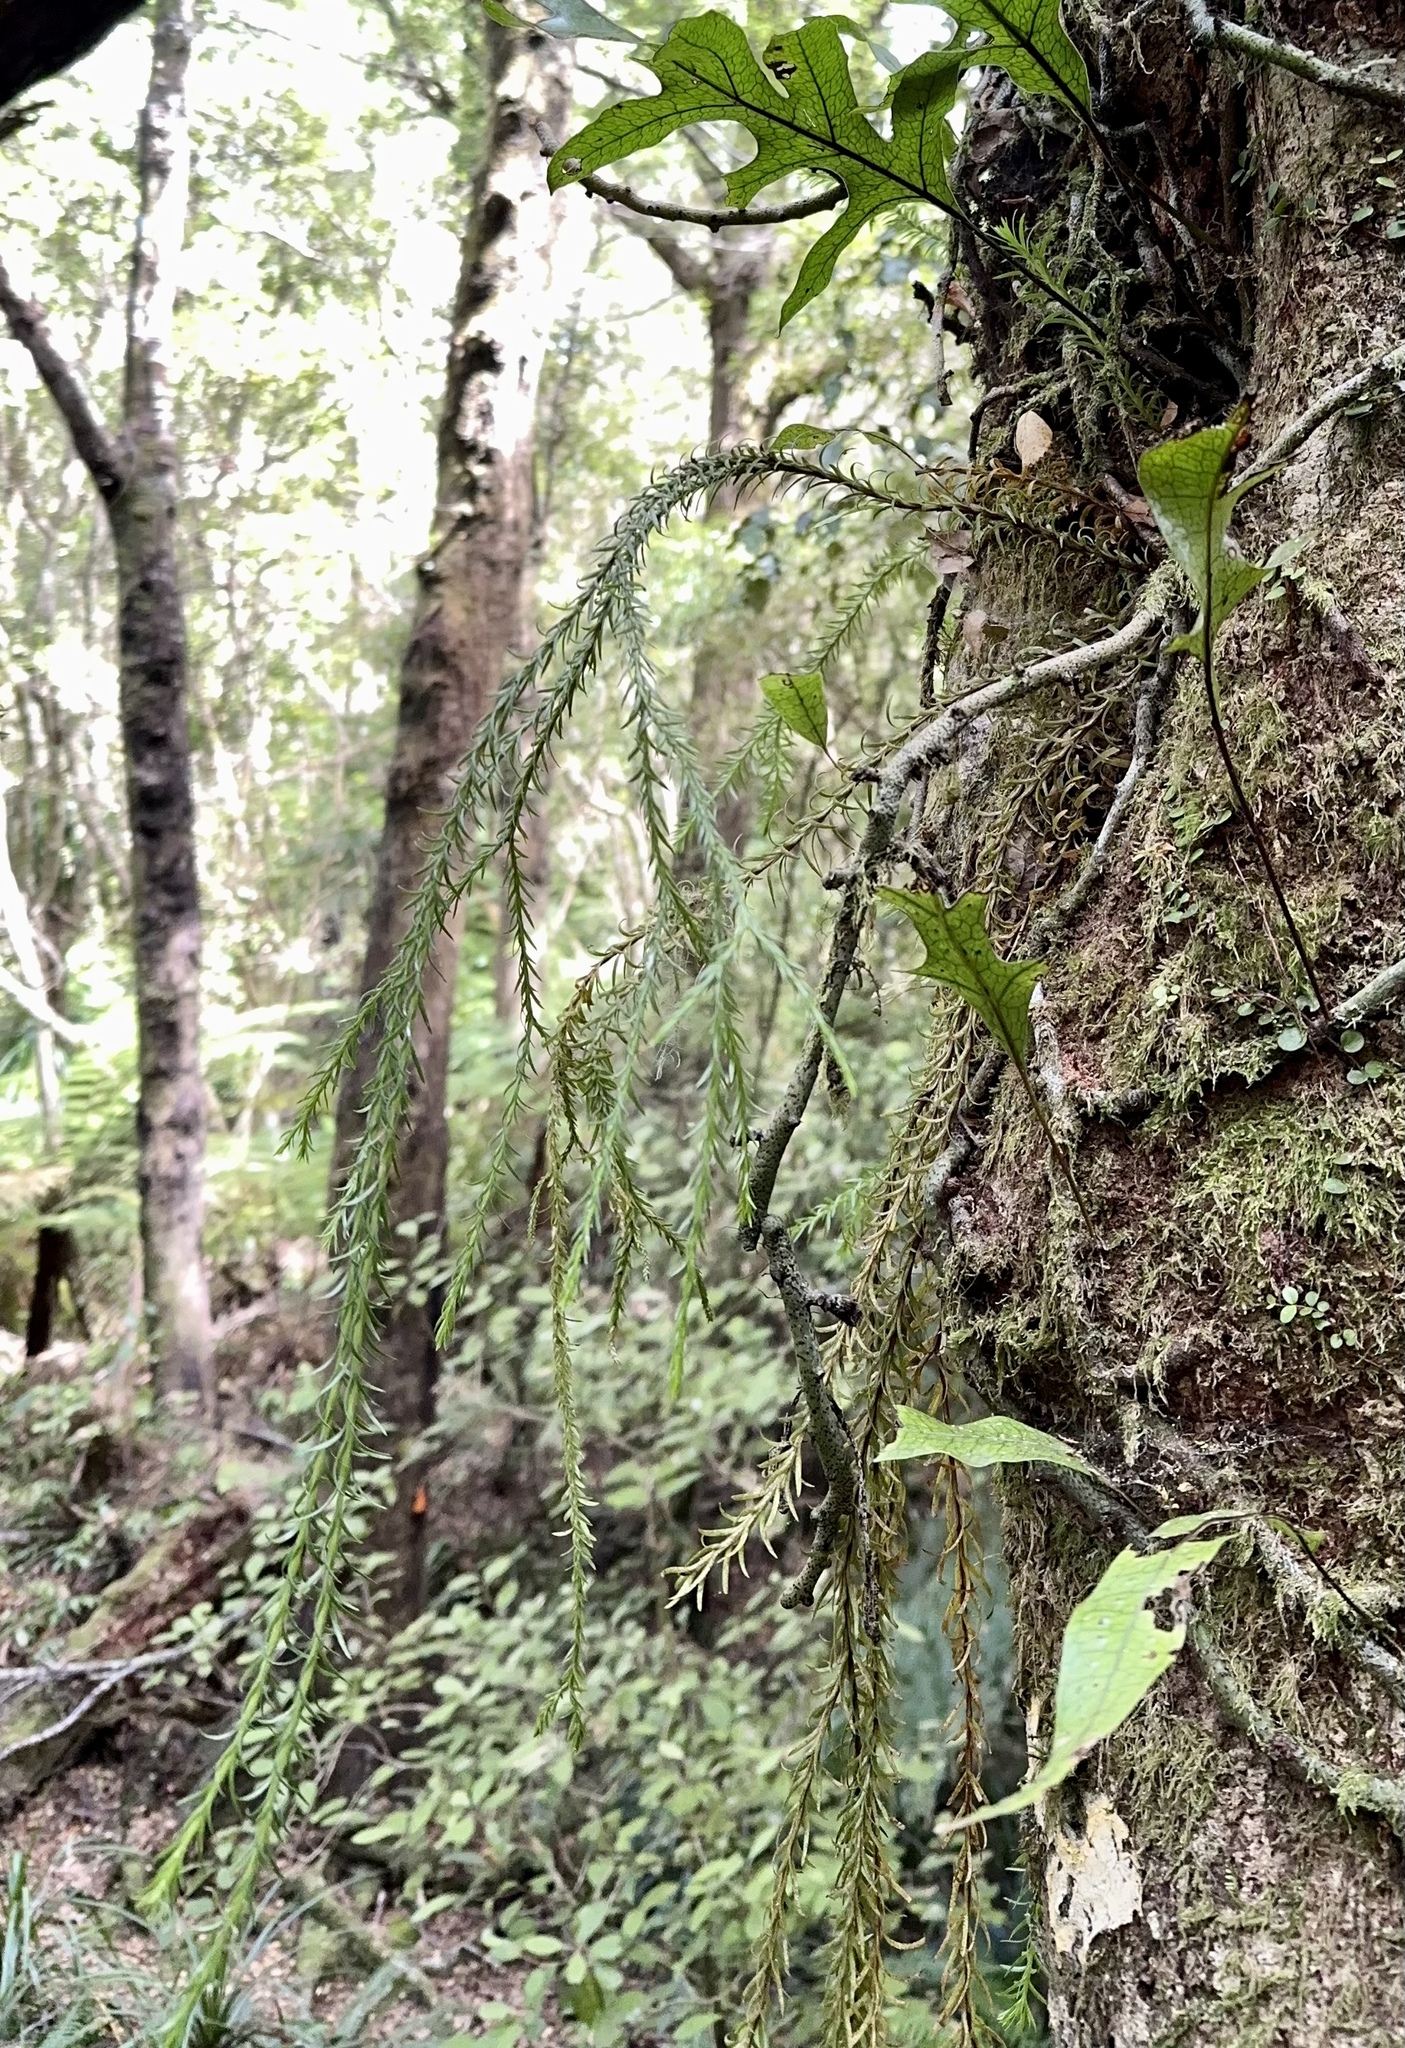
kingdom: Plantae
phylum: Tracheophyta
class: Lycopodiopsida
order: Lycopodiales
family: Lycopodiaceae
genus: Phlegmariurus
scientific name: Phlegmariurus billardierei
